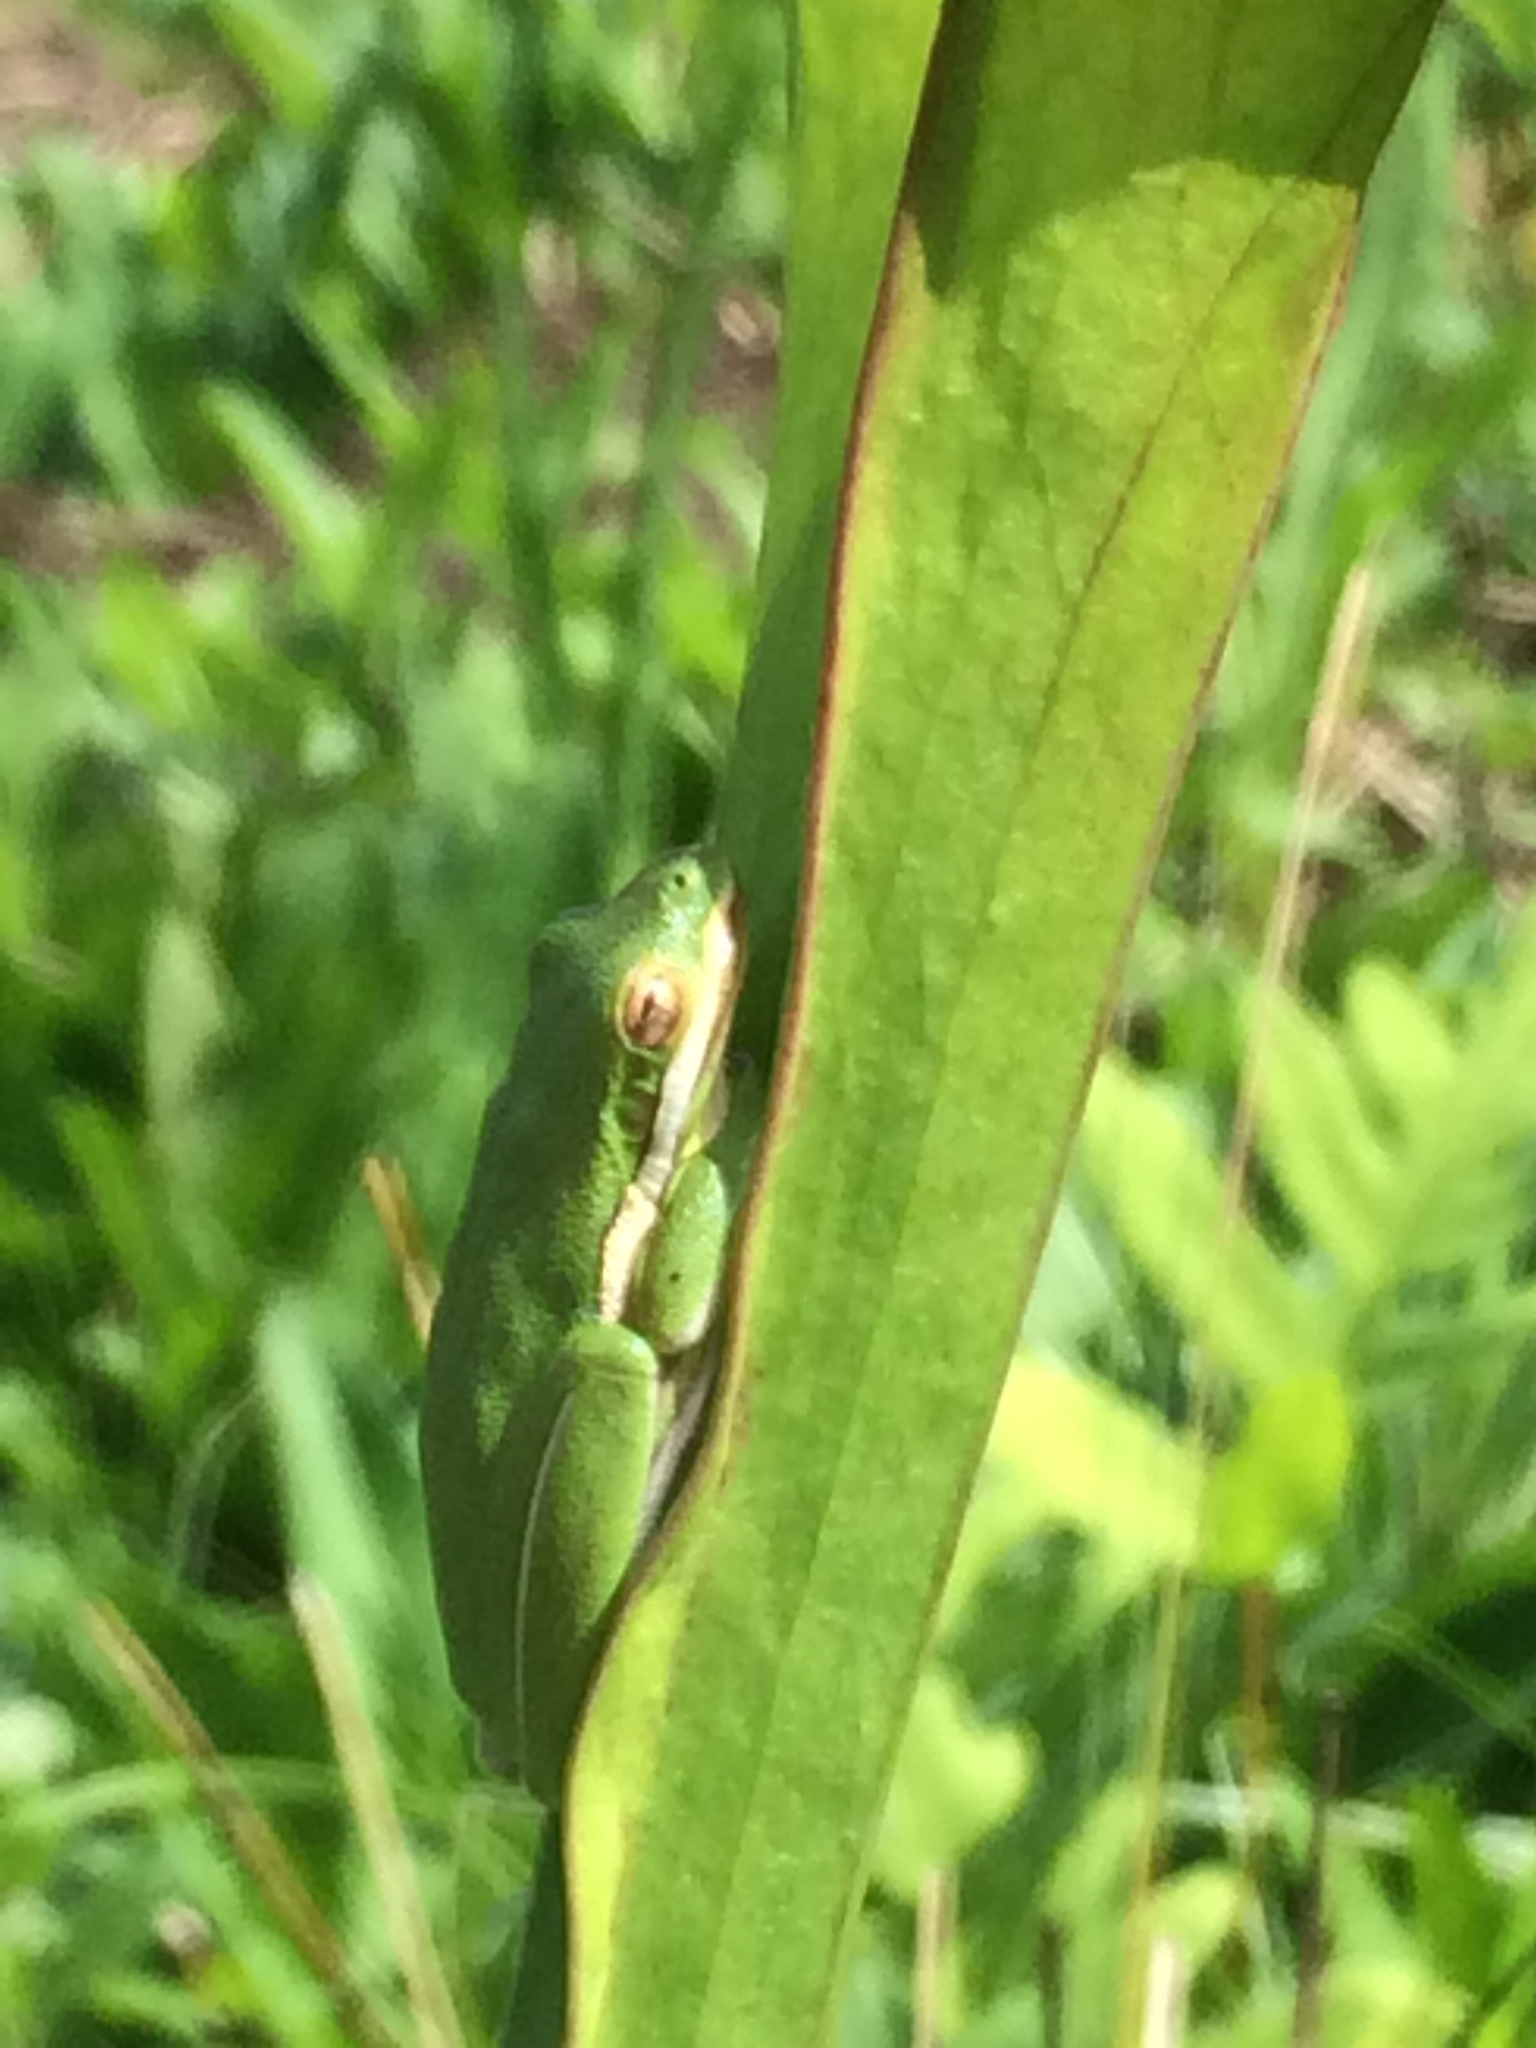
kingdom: Animalia
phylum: Chordata
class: Amphibia
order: Anura
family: Hylidae
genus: Dryophytes
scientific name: Dryophytes cinereus
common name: Green treefrog
